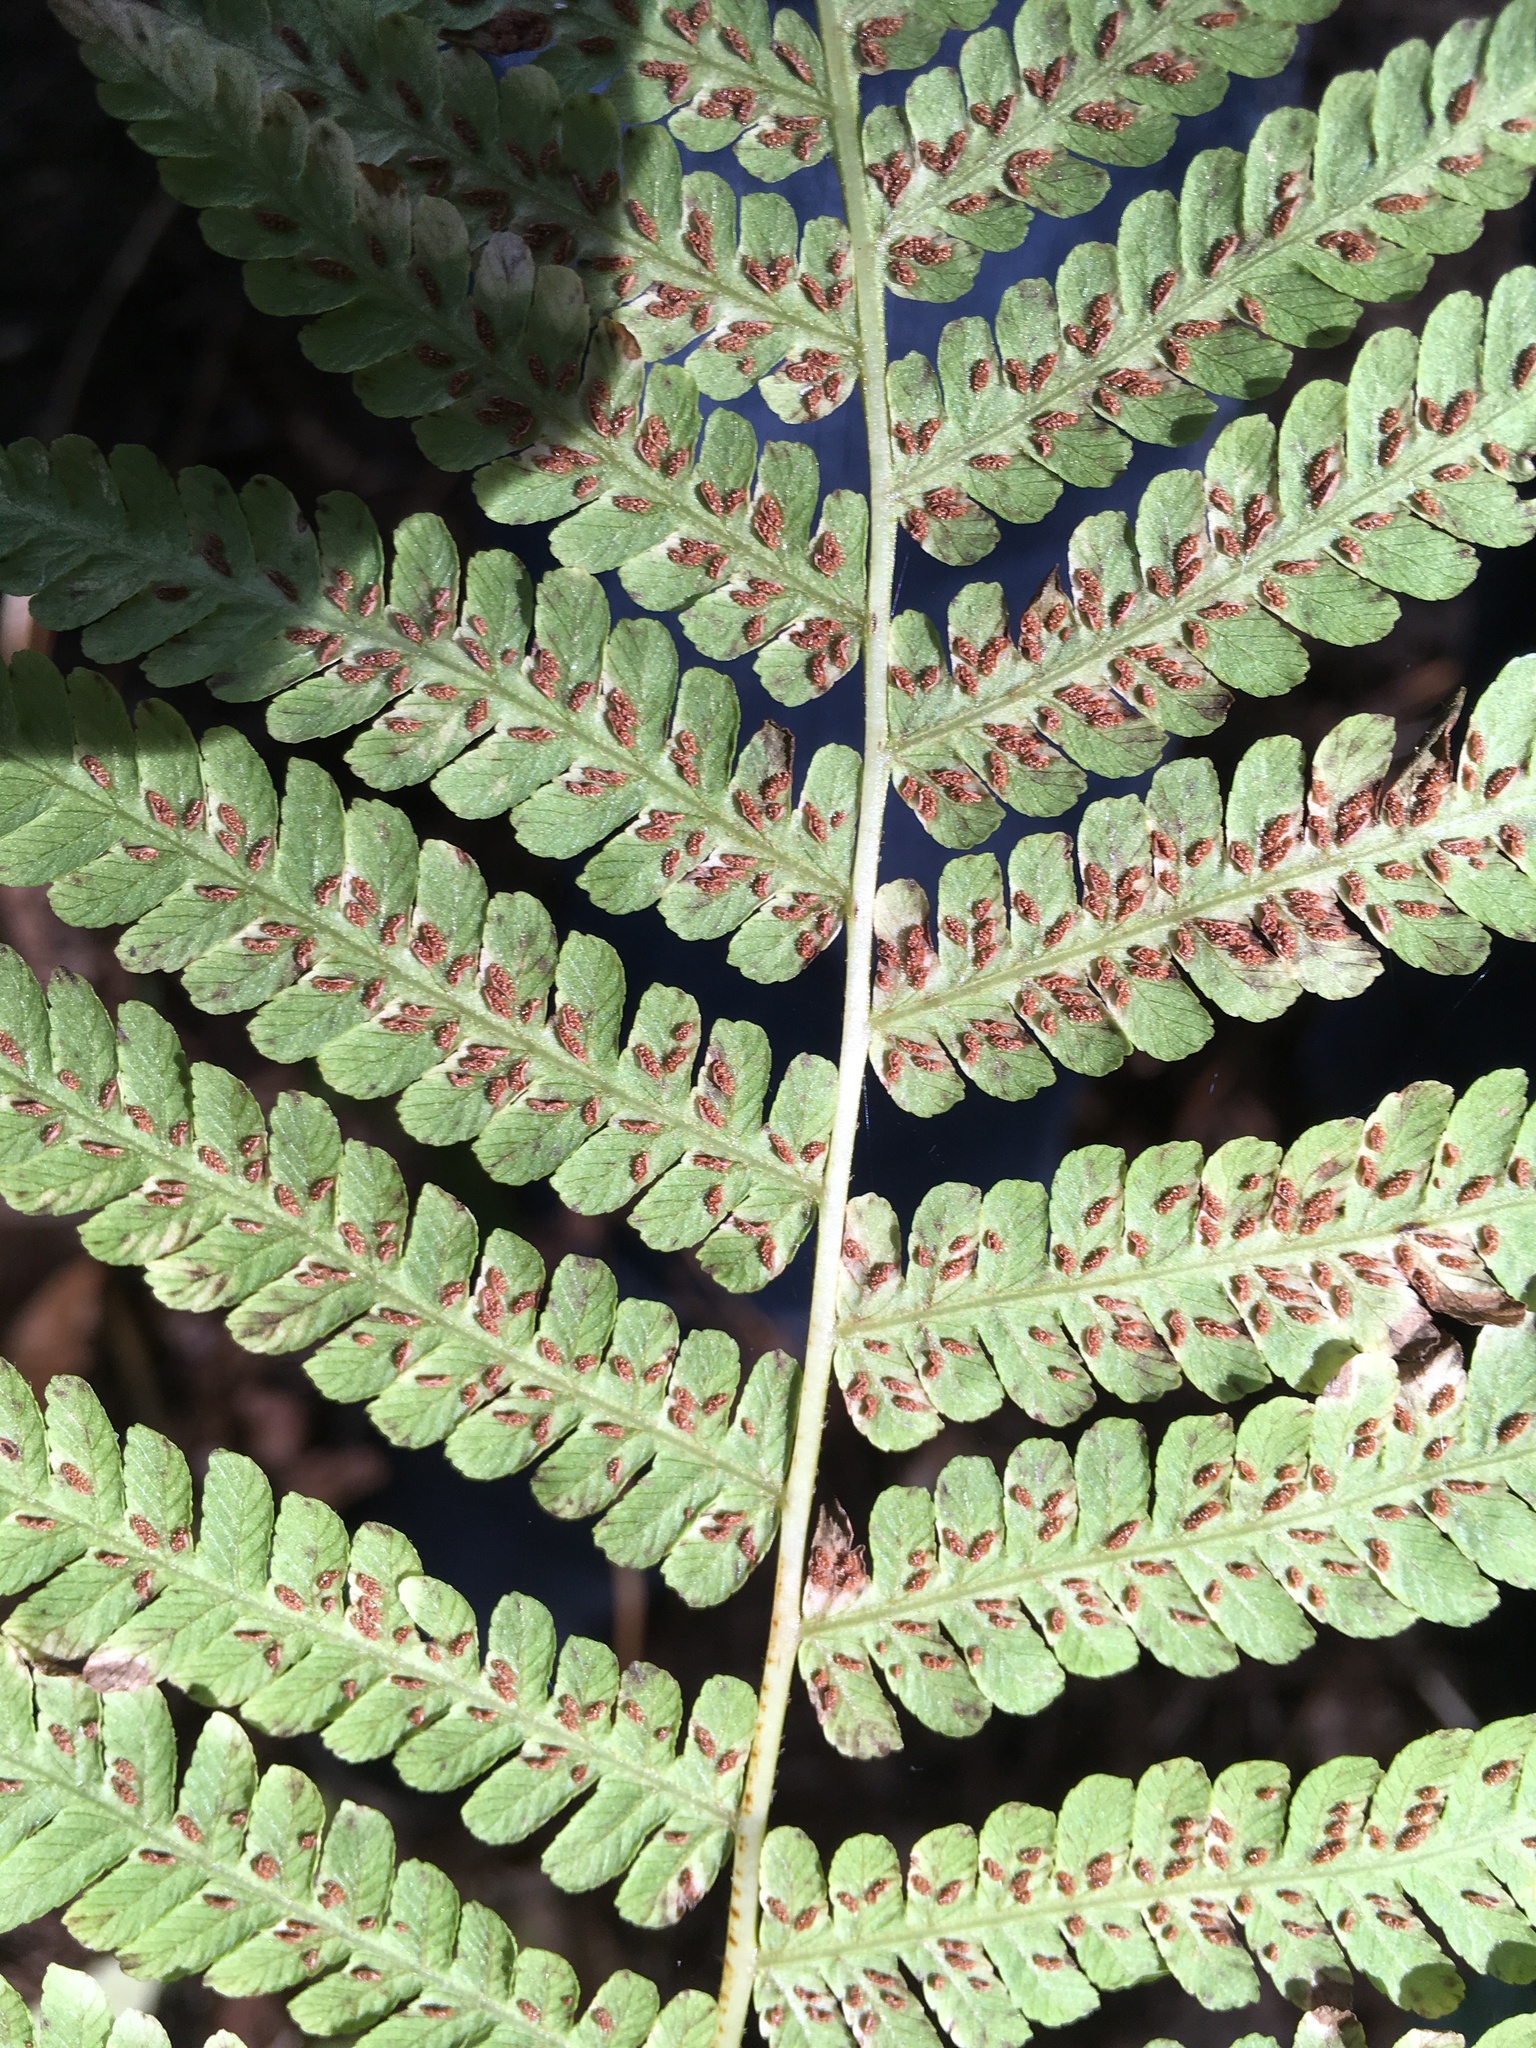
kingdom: Plantae
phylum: Tracheophyta
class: Polypodiopsida
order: Polypodiales
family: Athyriaceae
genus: Deparia
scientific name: Deparia acrostichoides
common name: Silver false spleenwort
